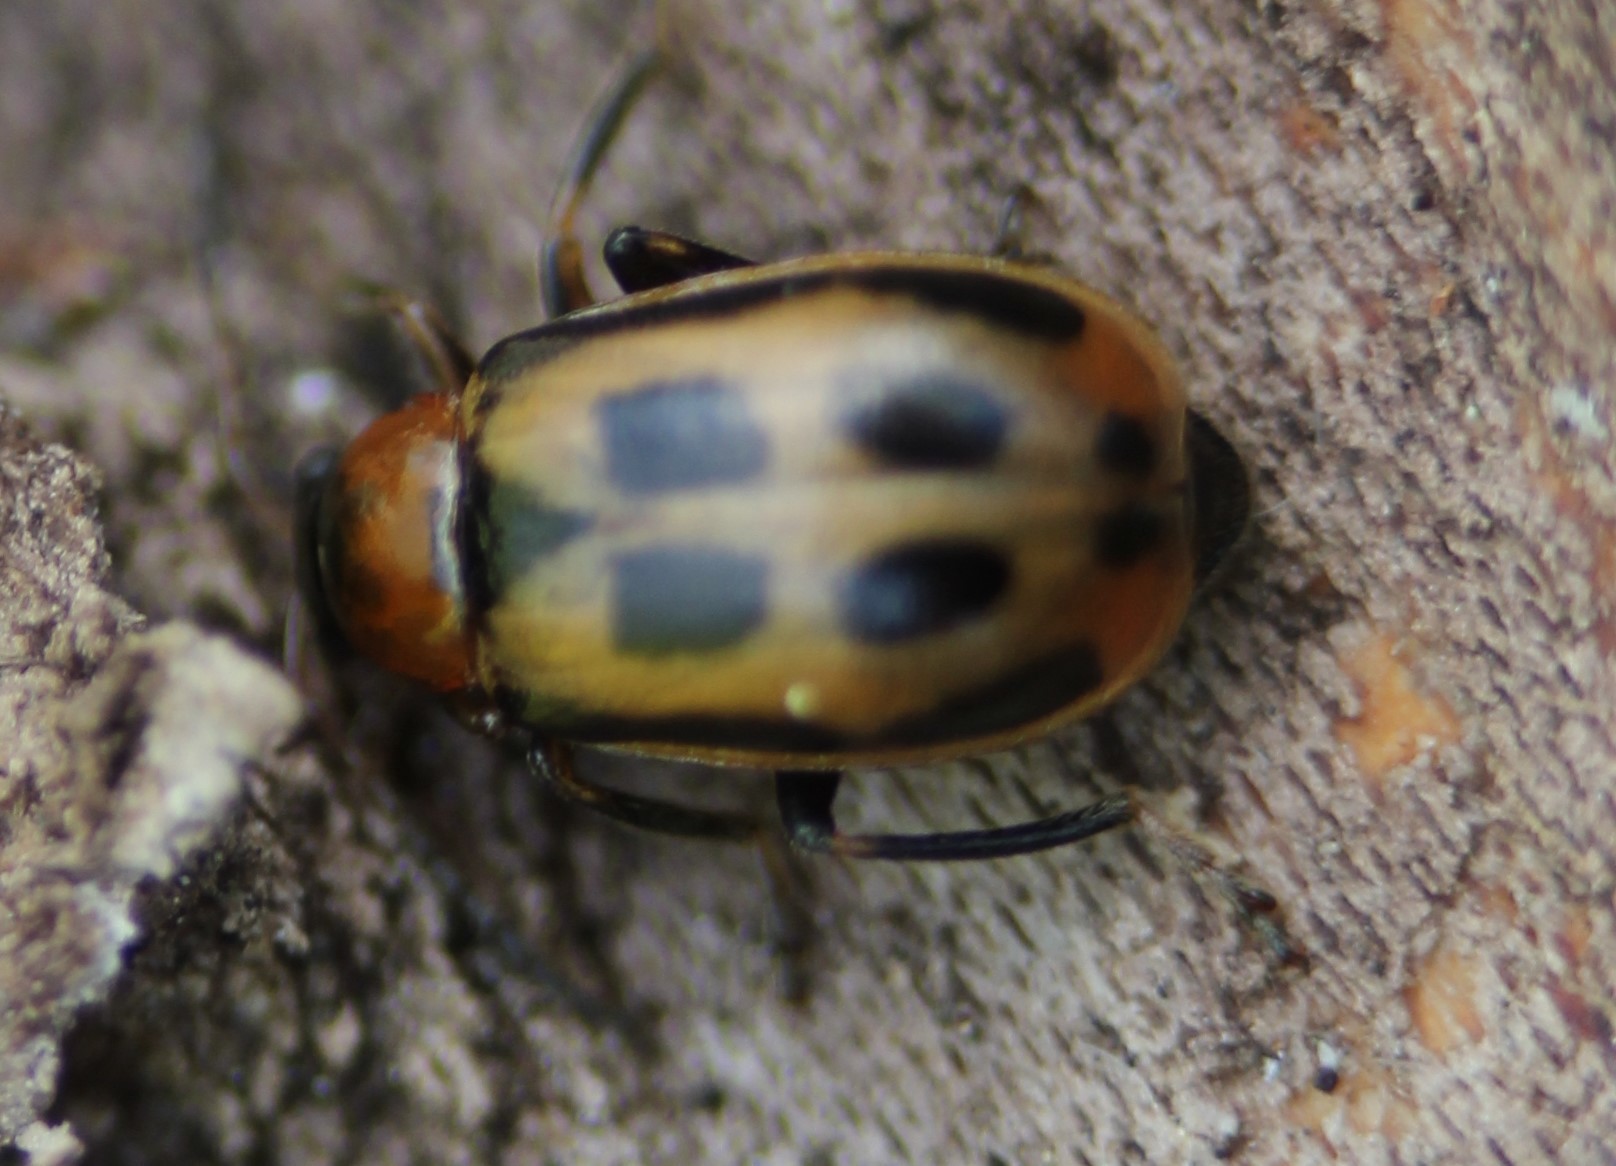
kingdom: Animalia
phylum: Arthropoda
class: Insecta
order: Coleoptera
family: Chrysomelidae
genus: Cerotoma
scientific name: Cerotoma trifurcata
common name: Bean leaf beetle
